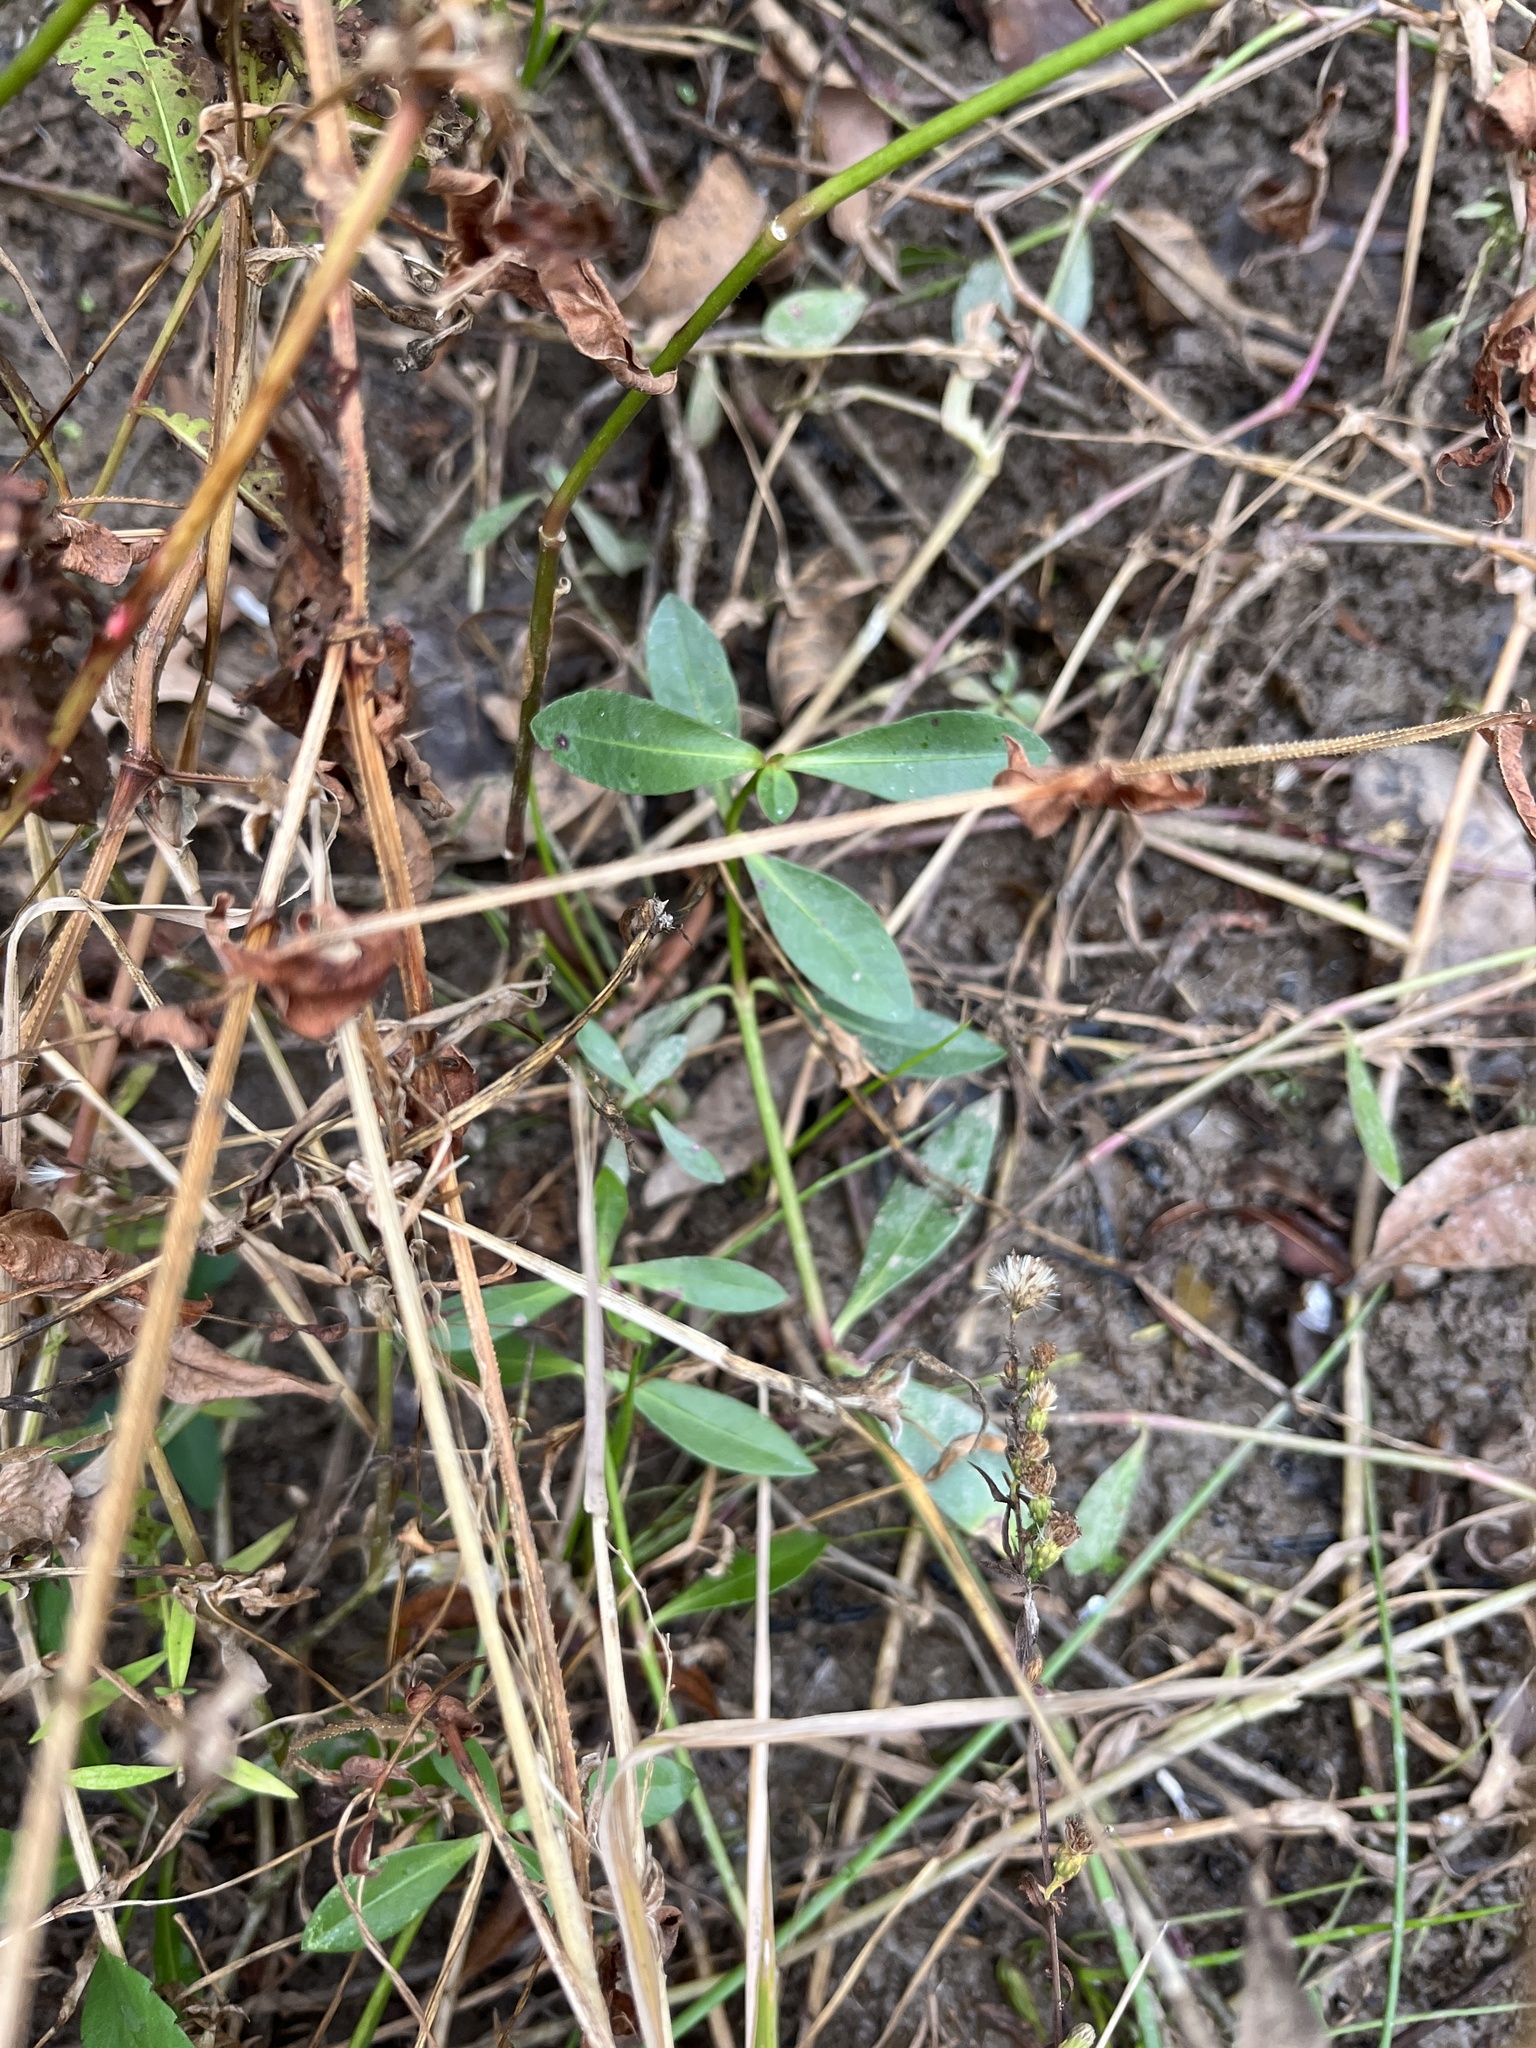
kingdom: Plantae
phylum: Tracheophyta
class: Magnoliopsida
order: Caryophyllales
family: Amaranthaceae
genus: Alternanthera
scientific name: Alternanthera philoxeroides
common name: Alligatorweed
